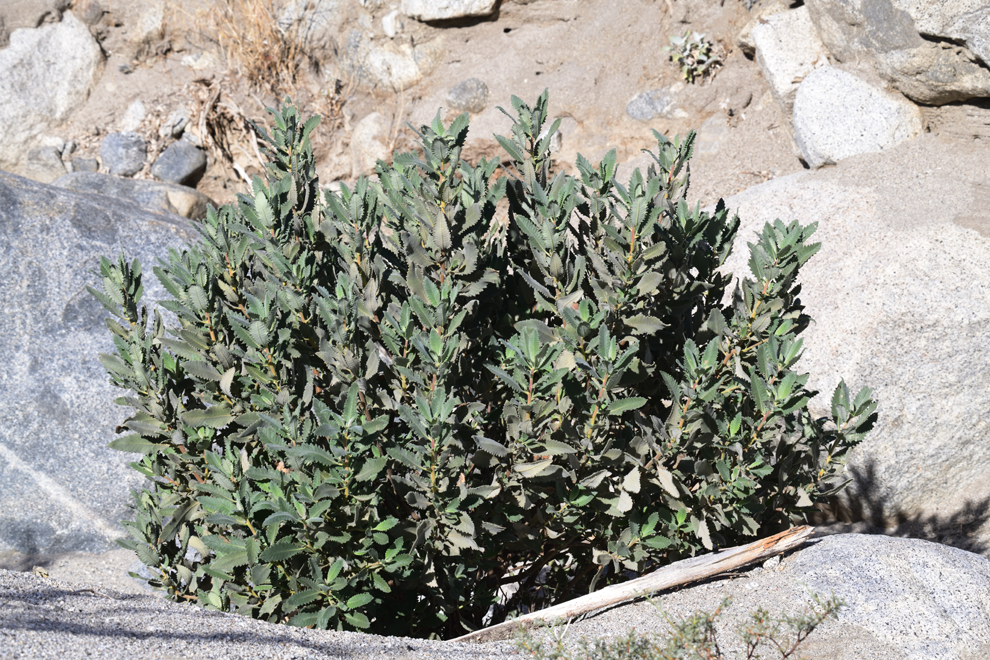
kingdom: Plantae
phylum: Tracheophyta
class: Magnoliopsida
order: Boraginales
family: Namaceae
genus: Eriodictyon
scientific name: Eriodictyon crassifolium
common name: Thick-leaf yerba-santa
